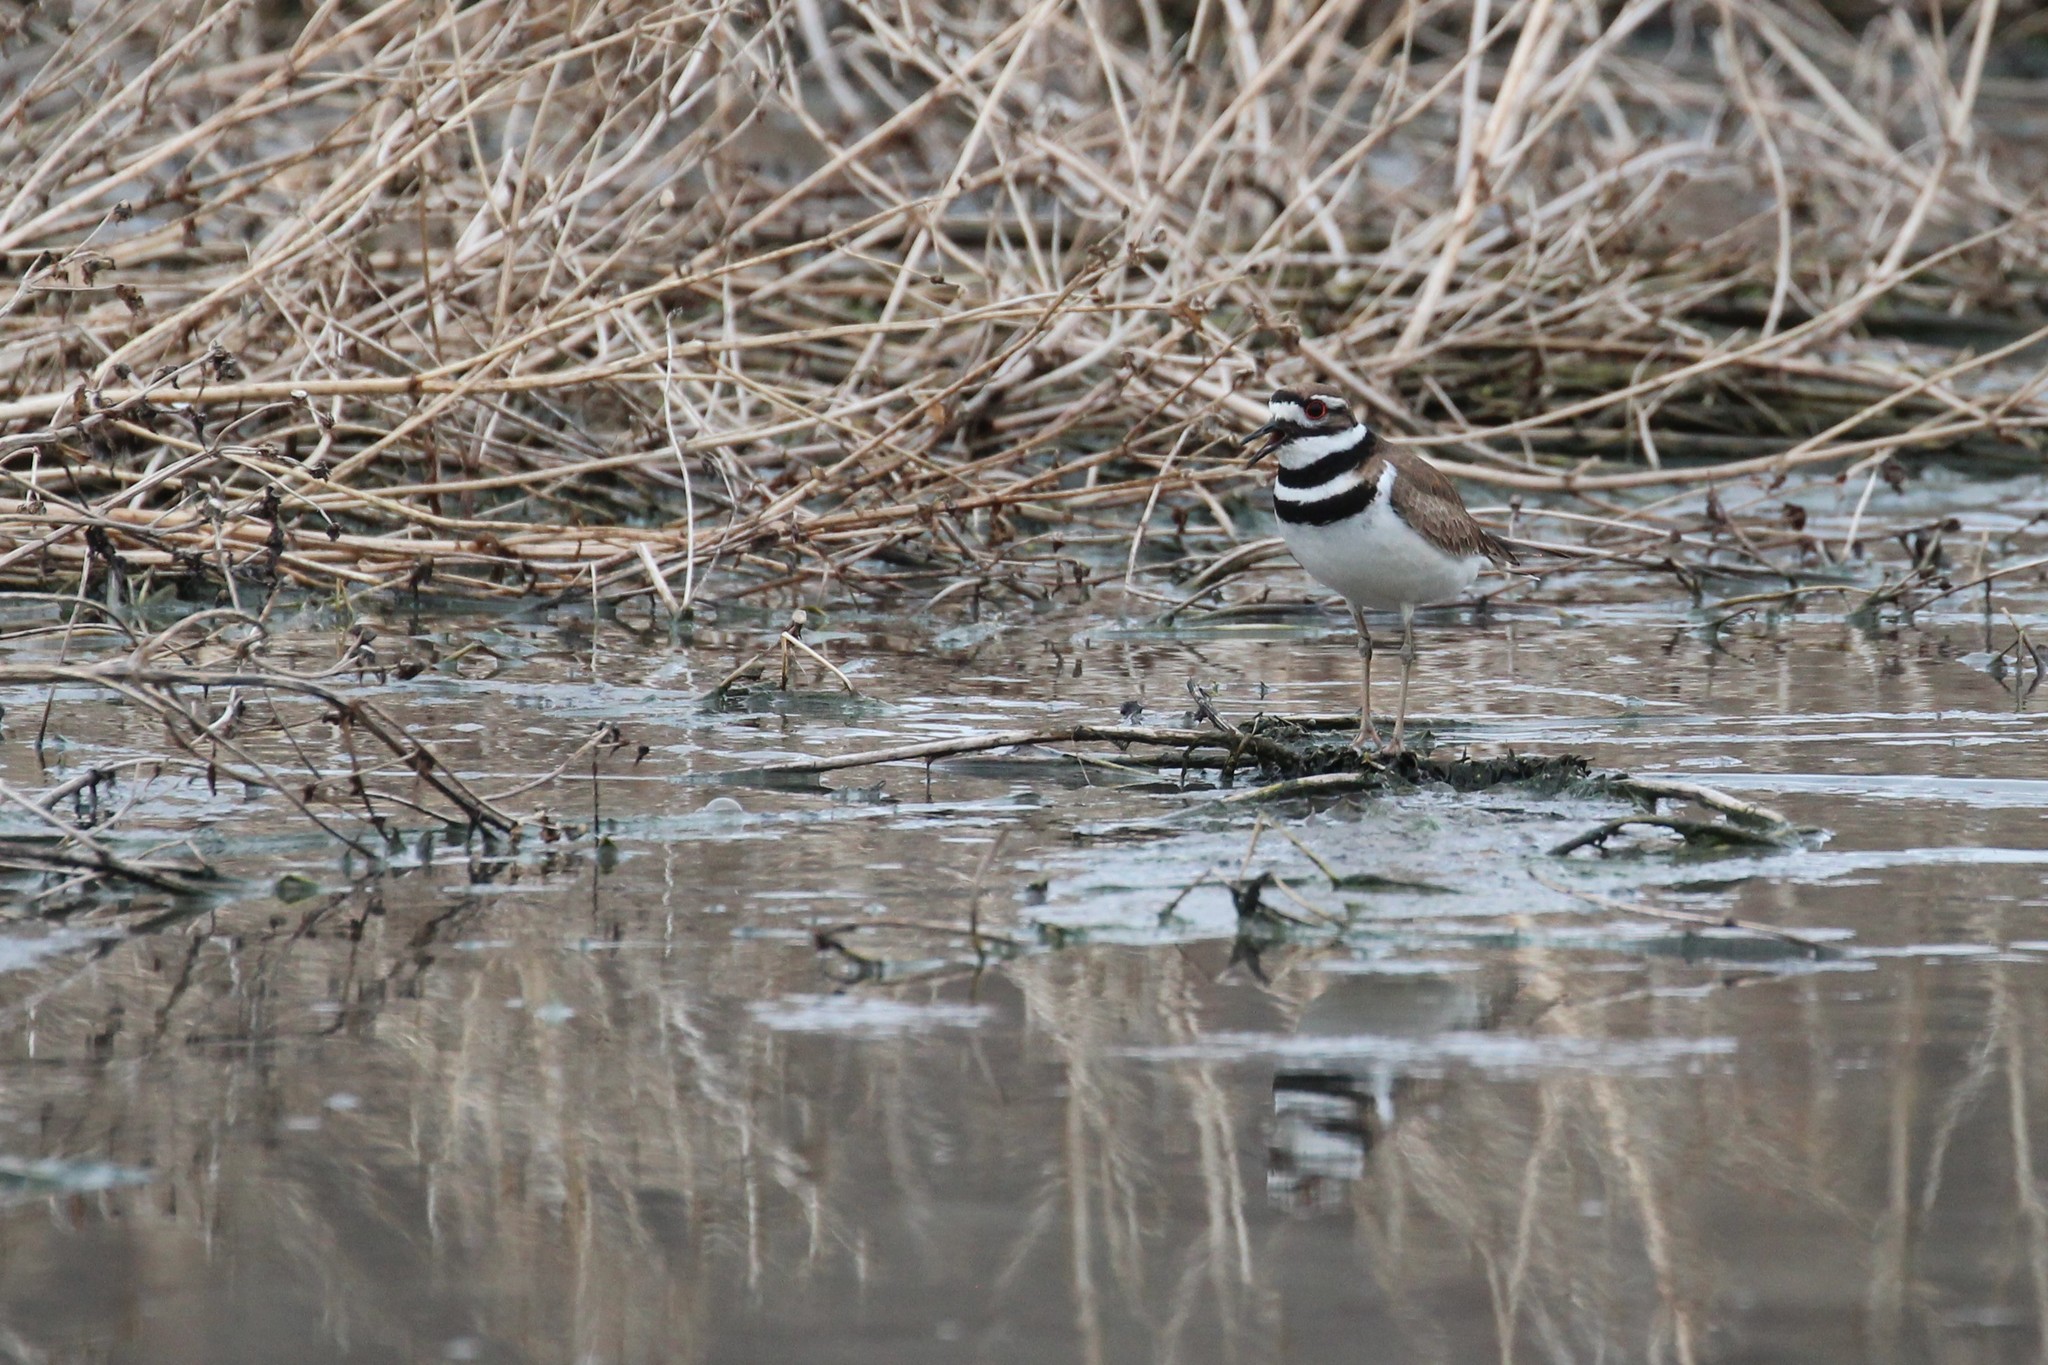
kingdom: Animalia
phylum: Chordata
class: Aves
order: Charadriiformes
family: Charadriidae
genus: Charadrius
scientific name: Charadrius vociferus
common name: Killdeer
